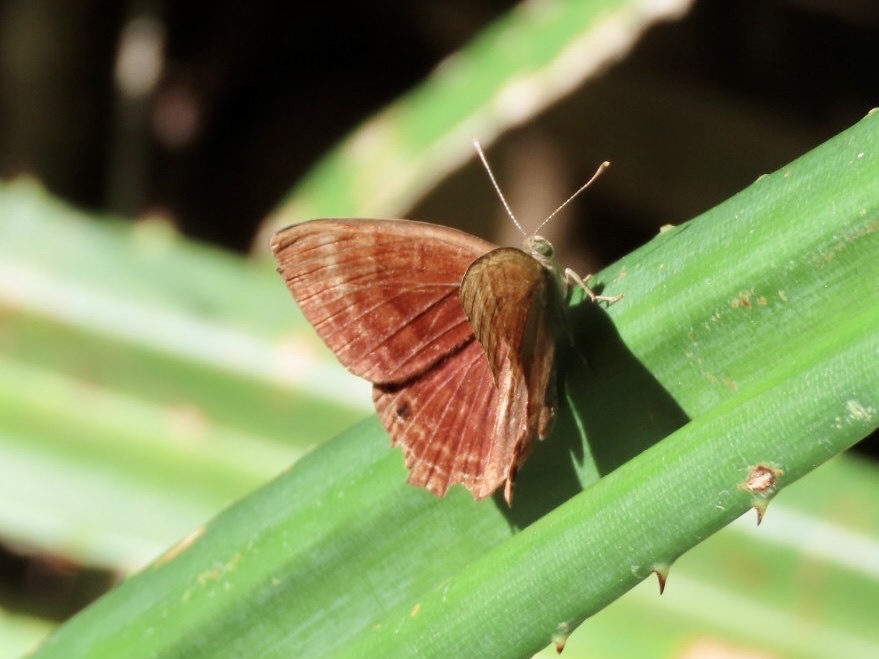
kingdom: Animalia
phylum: Arthropoda
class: Insecta
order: Lepidoptera
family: Lycaenidae
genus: Abisara
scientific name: Abisara echeria
